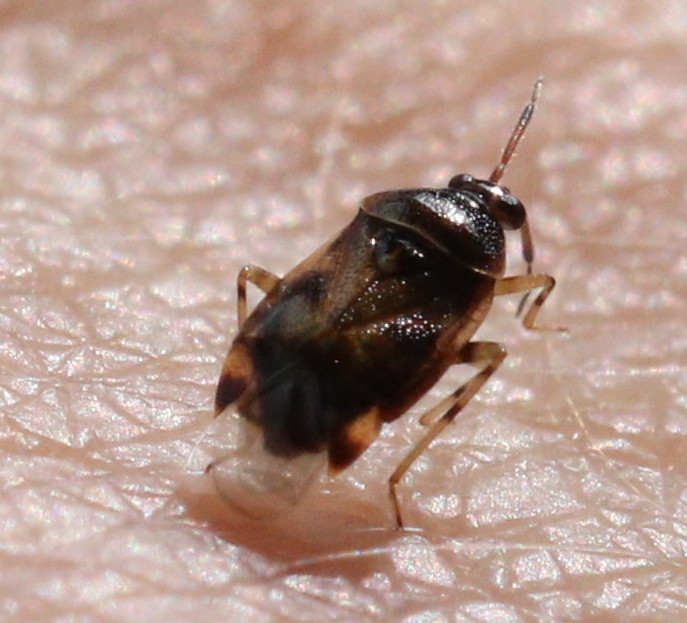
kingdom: Animalia
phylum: Arthropoda
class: Insecta
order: Hemiptera
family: Miridae
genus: Deraeocoris
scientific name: Deraeocoris lutescens
